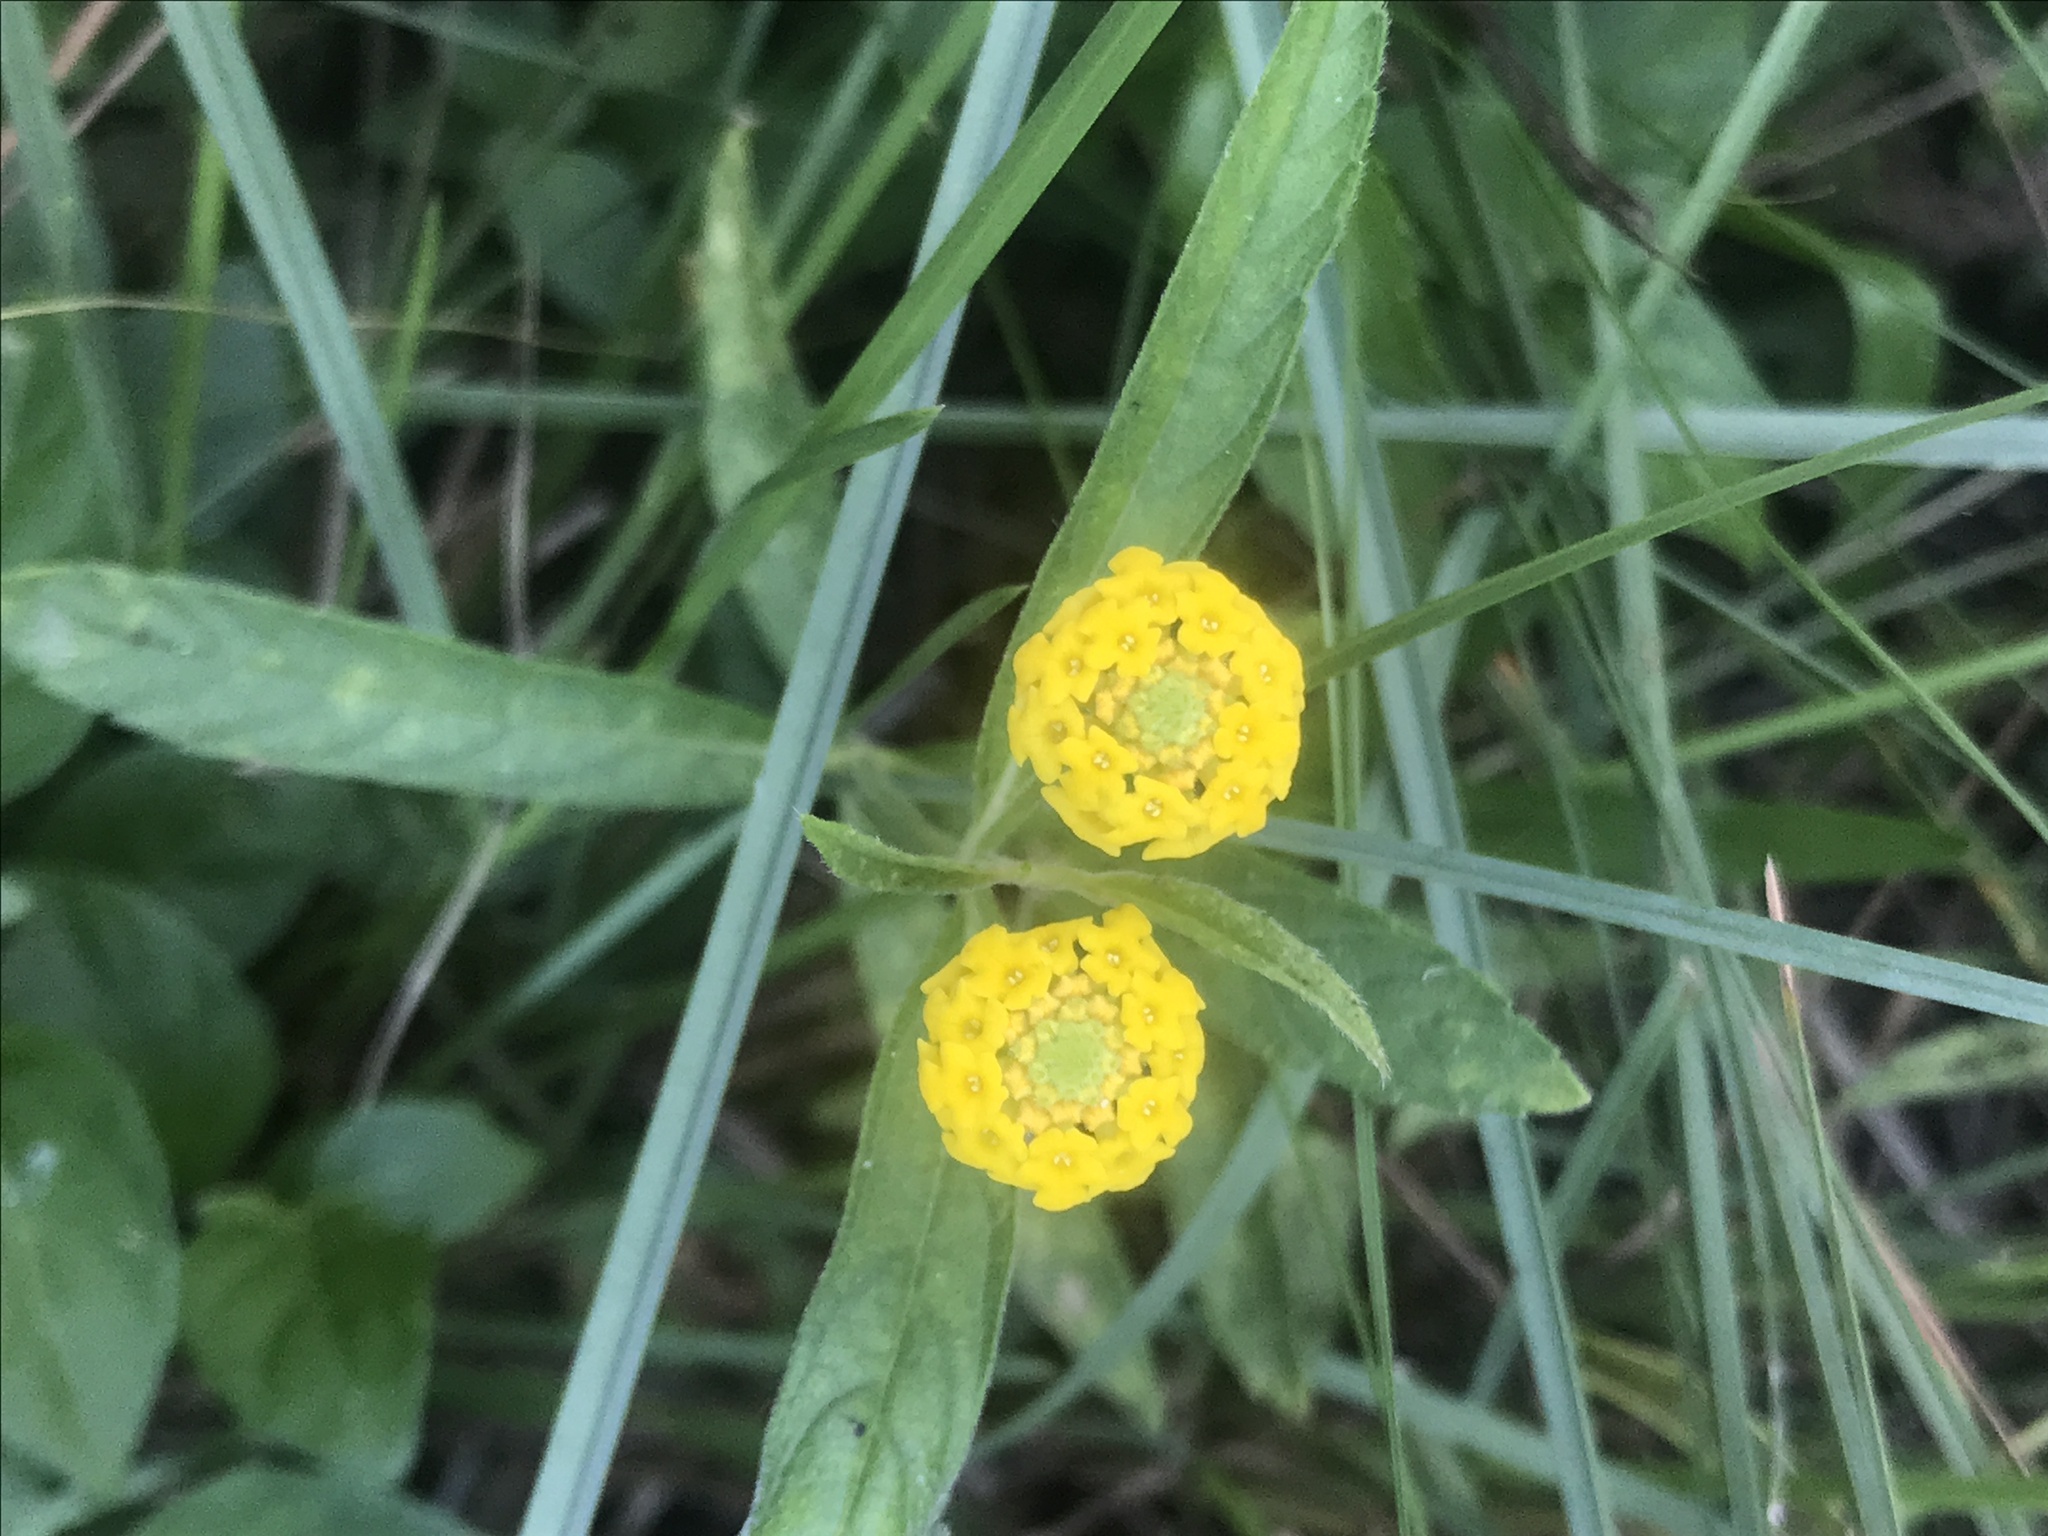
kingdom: Plantae
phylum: Tracheophyta
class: Magnoliopsida
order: Lamiales
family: Verbenaceae
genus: Lippia
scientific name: Lippia asperrima
